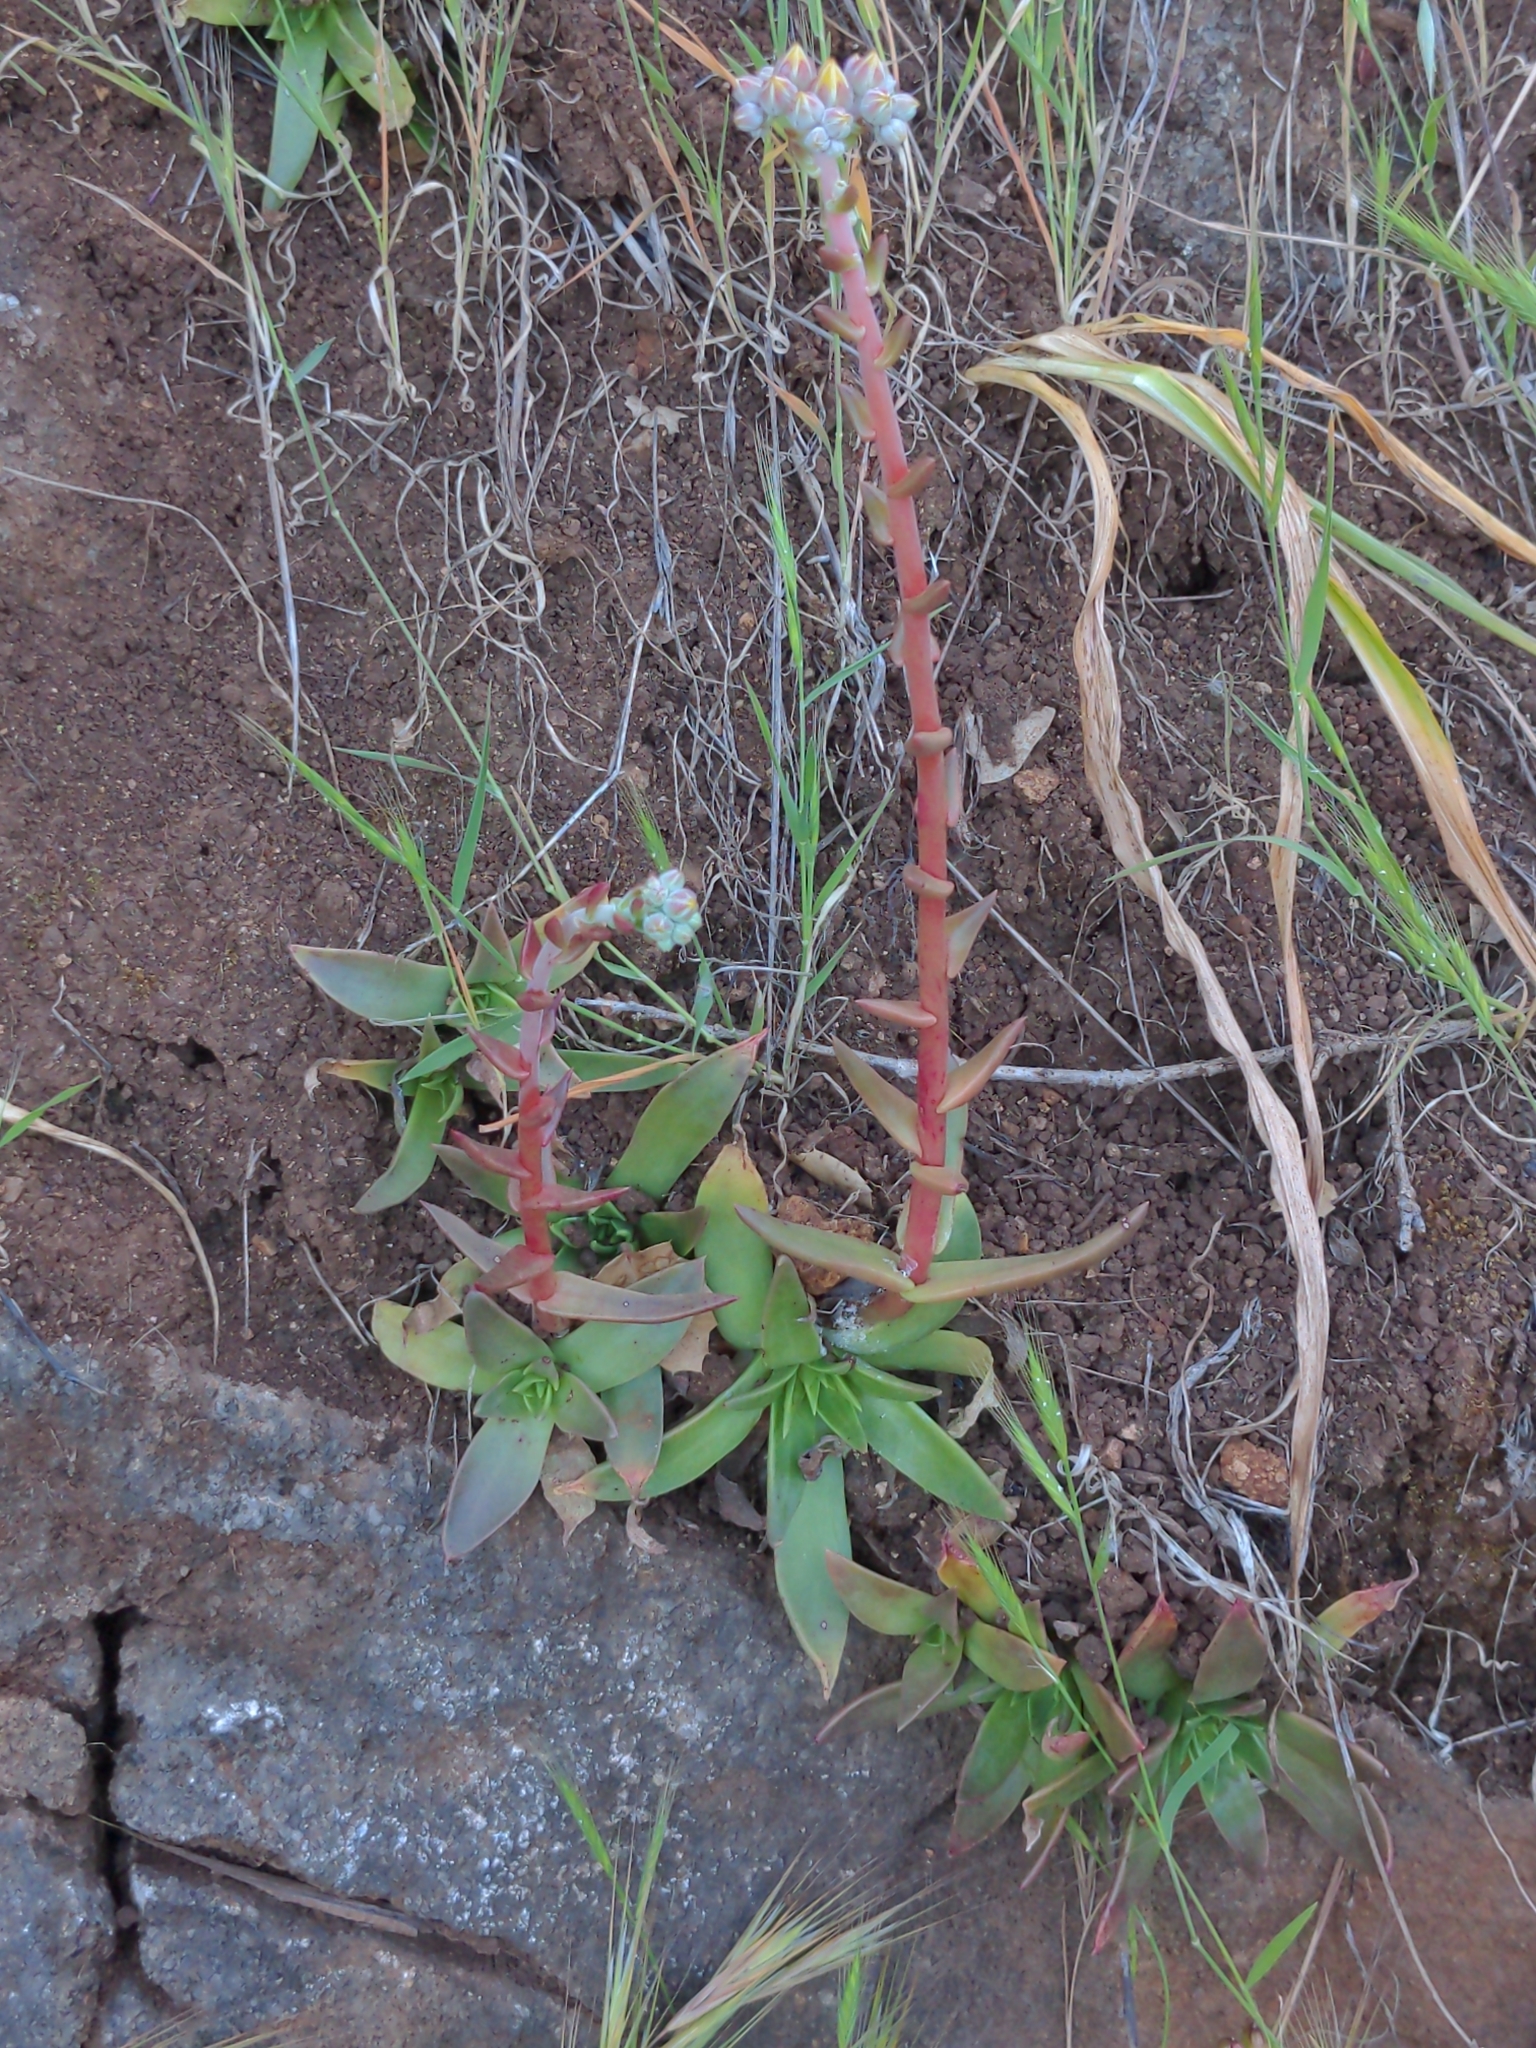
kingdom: Plantae
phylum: Tracheophyta
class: Magnoliopsida
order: Saxifragales
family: Crassulaceae
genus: Dudleya
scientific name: Dudleya caespitosa
